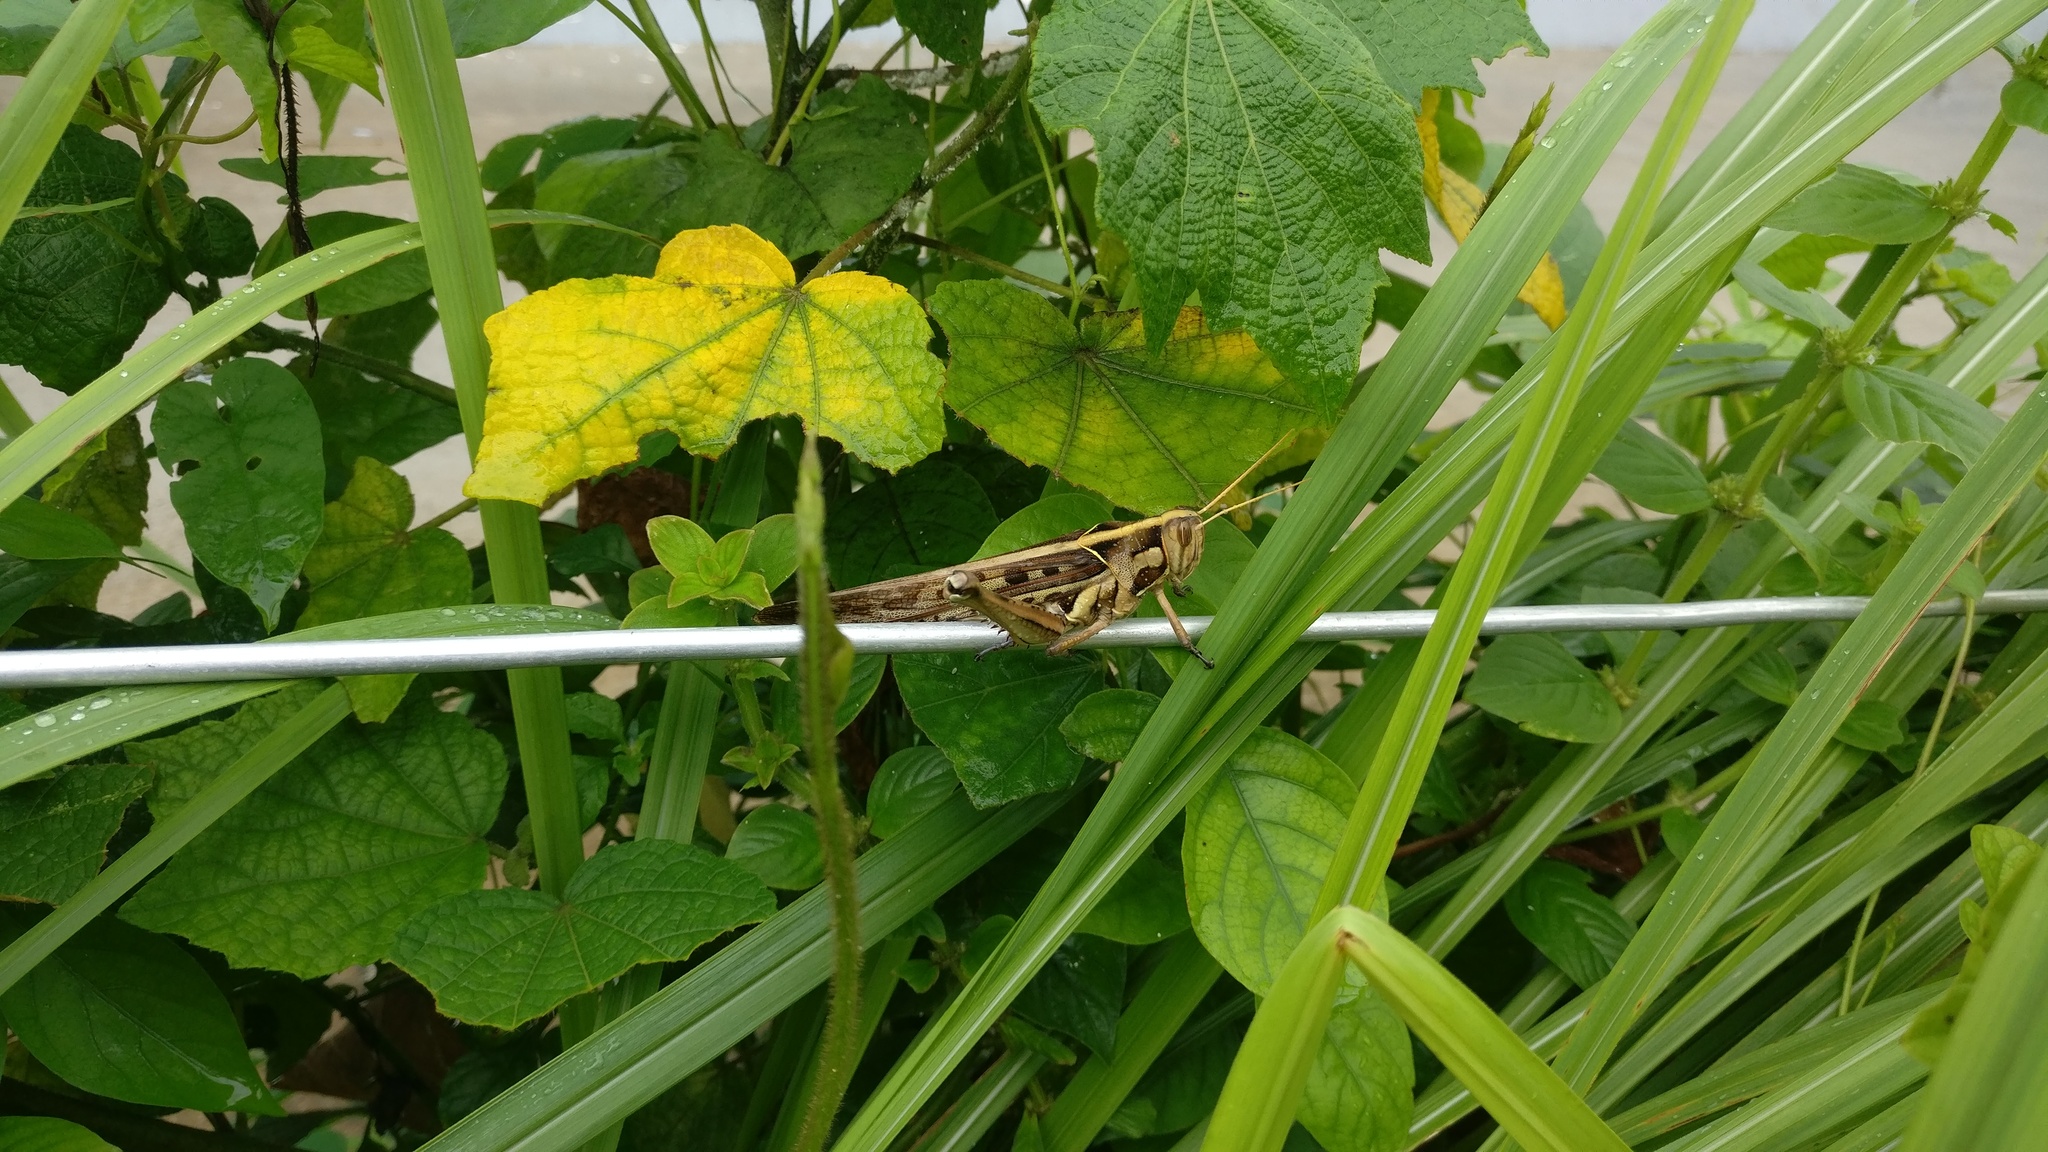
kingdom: Animalia
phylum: Arthropoda
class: Insecta
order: Orthoptera
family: Acrididae
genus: Cyrtacanthacris
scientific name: Cyrtacanthacris tatarica
